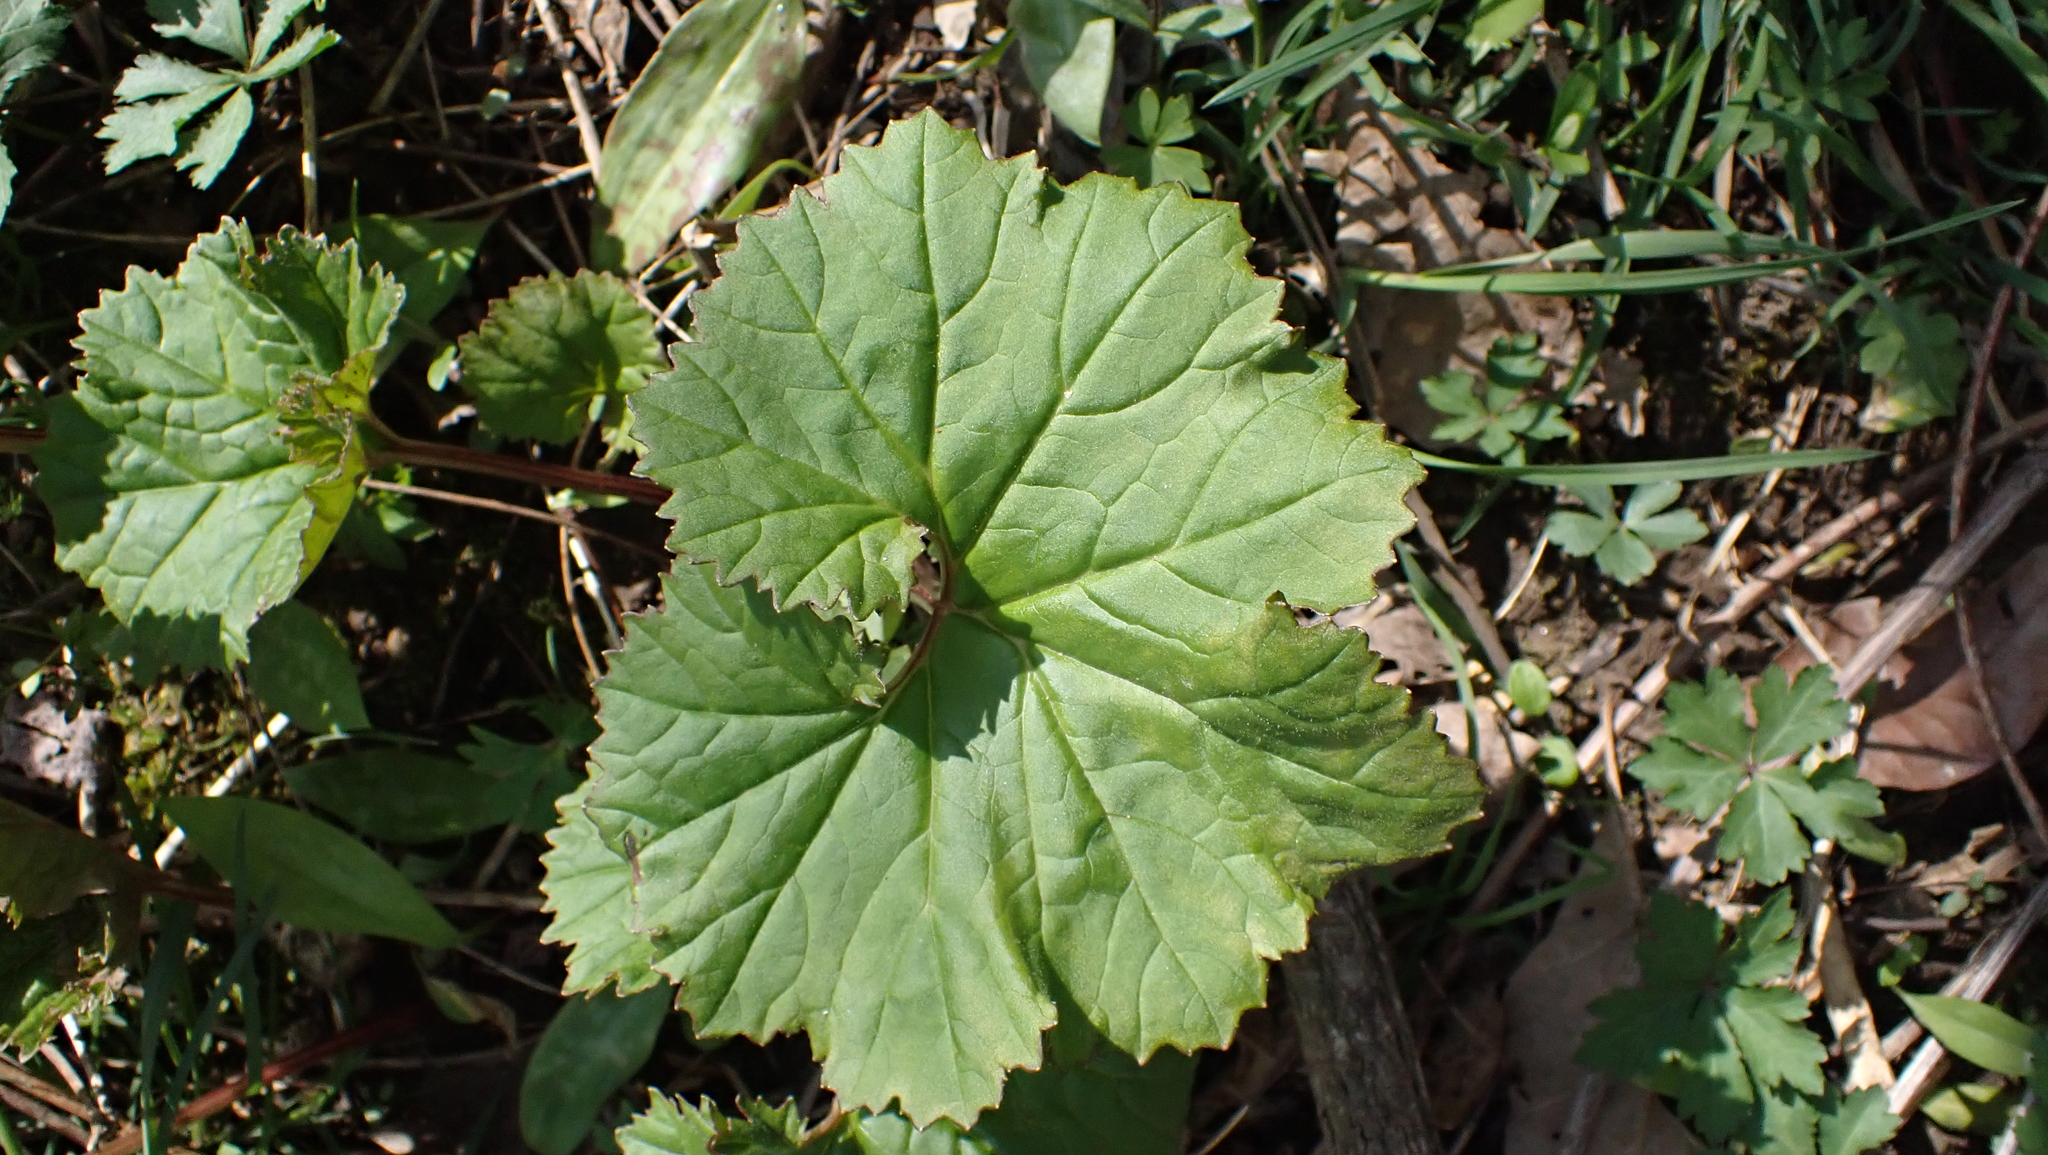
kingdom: Plantae
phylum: Tracheophyta
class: Magnoliopsida
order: Asterales
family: Asteraceae
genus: Arnoglossum
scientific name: Arnoglossum reniforme
